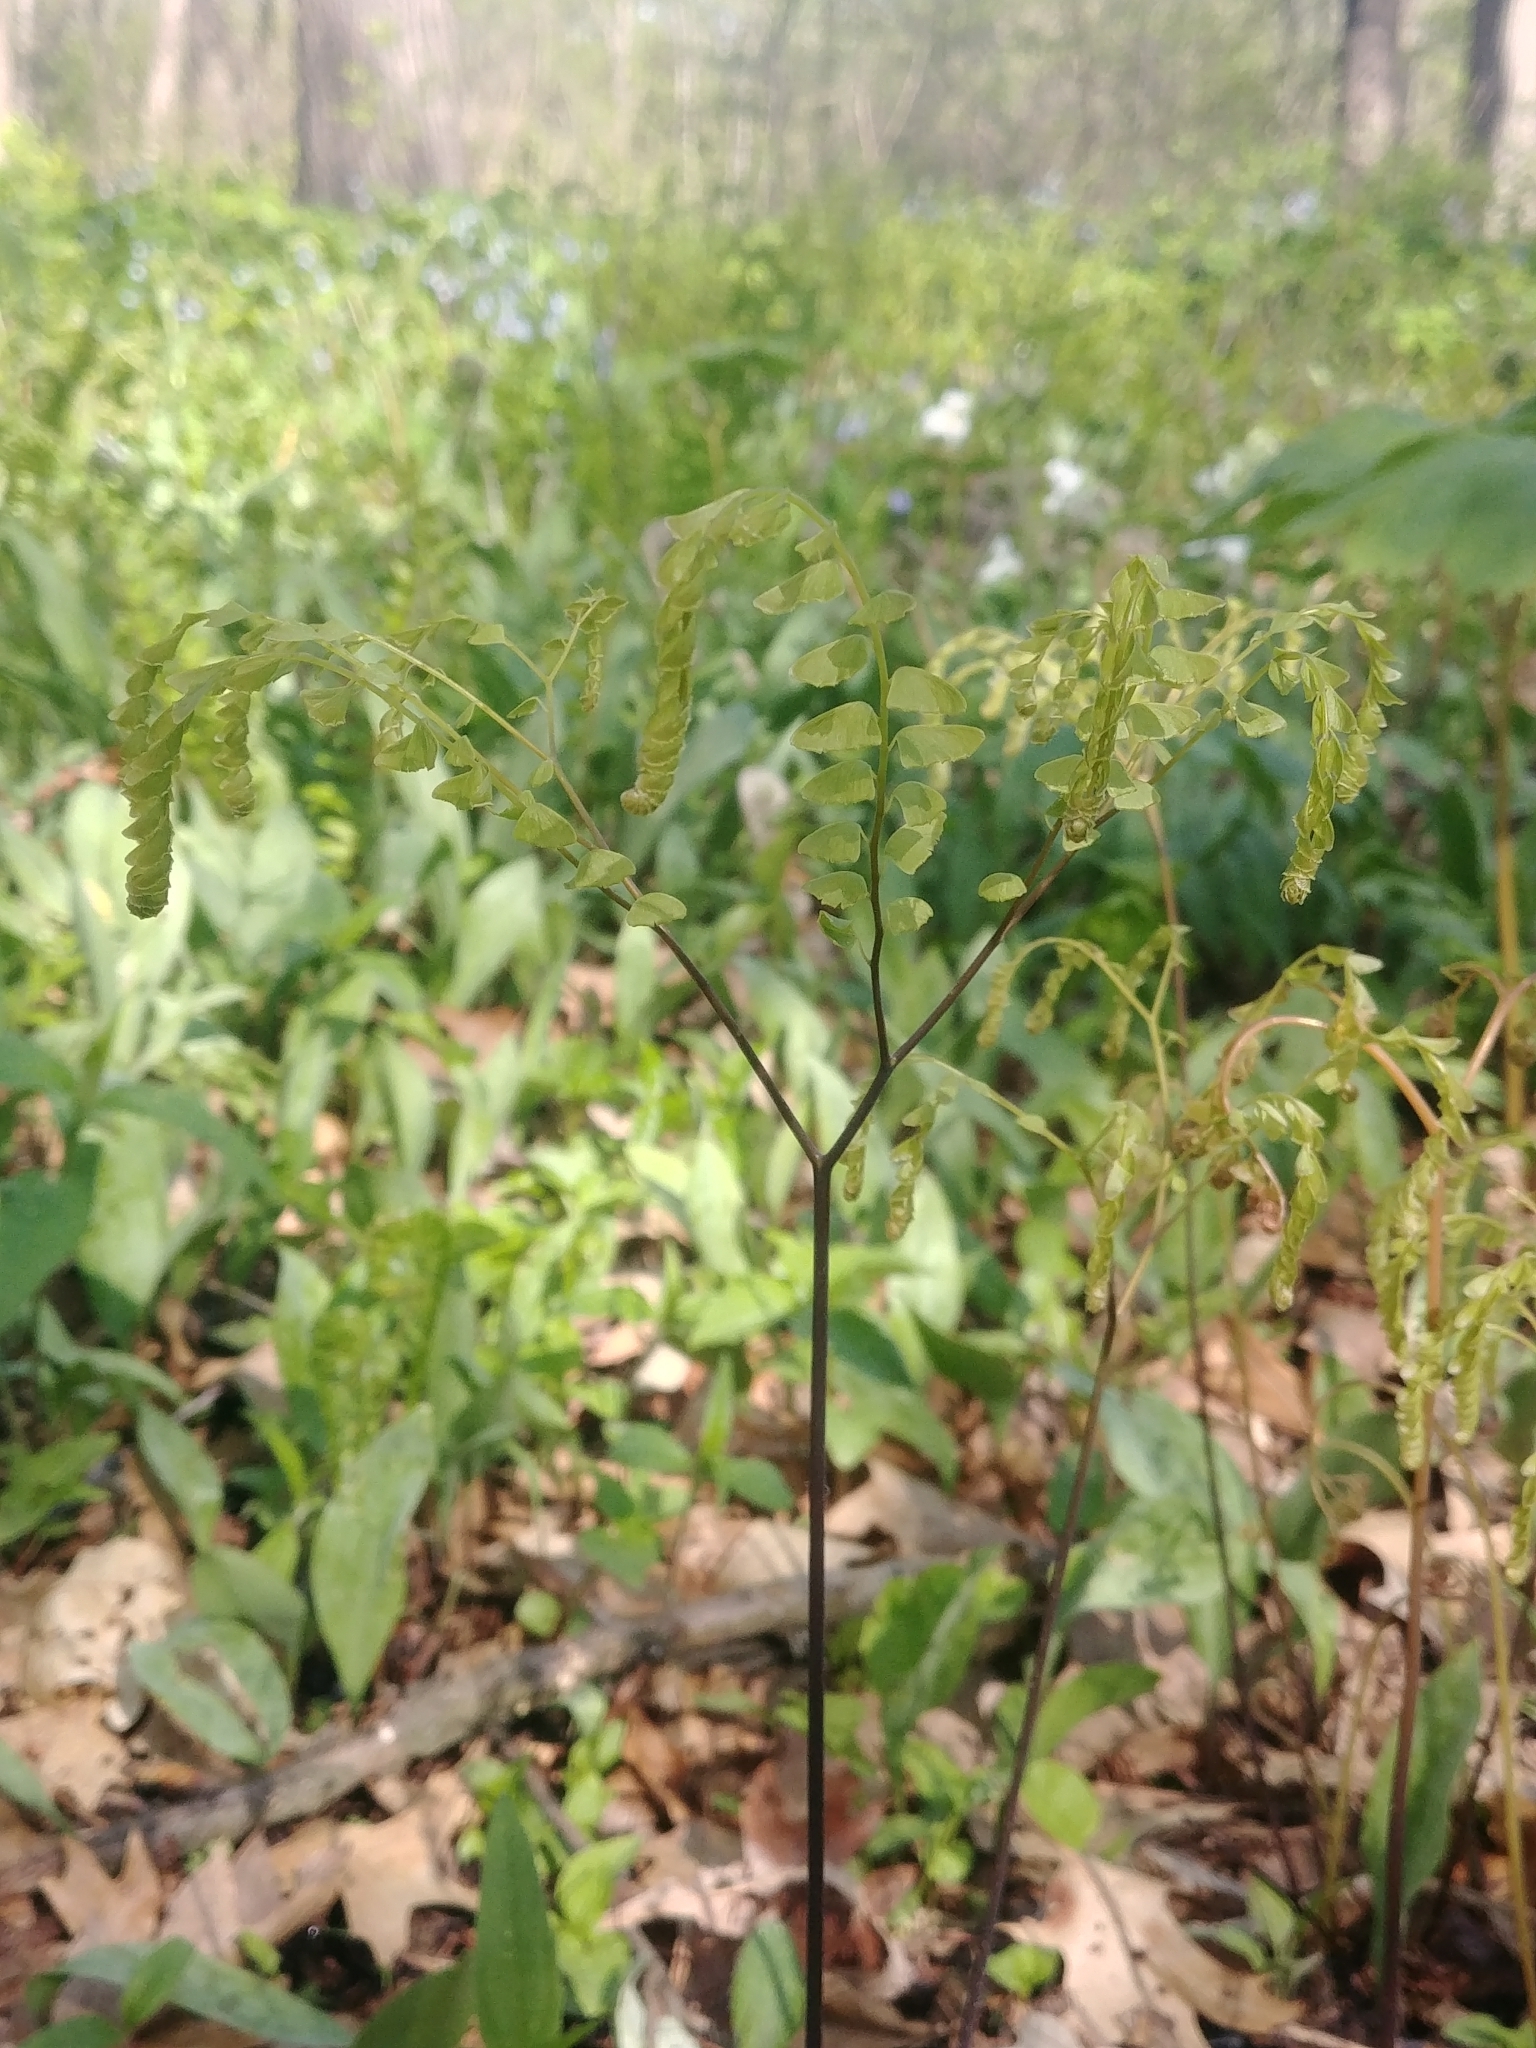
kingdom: Plantae
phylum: Tracheophyta
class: Polypodiopsida
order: Polypodiales
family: Pteridaceae
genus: Adiantum
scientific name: Adiantum pedatum
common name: Five-finger fern
